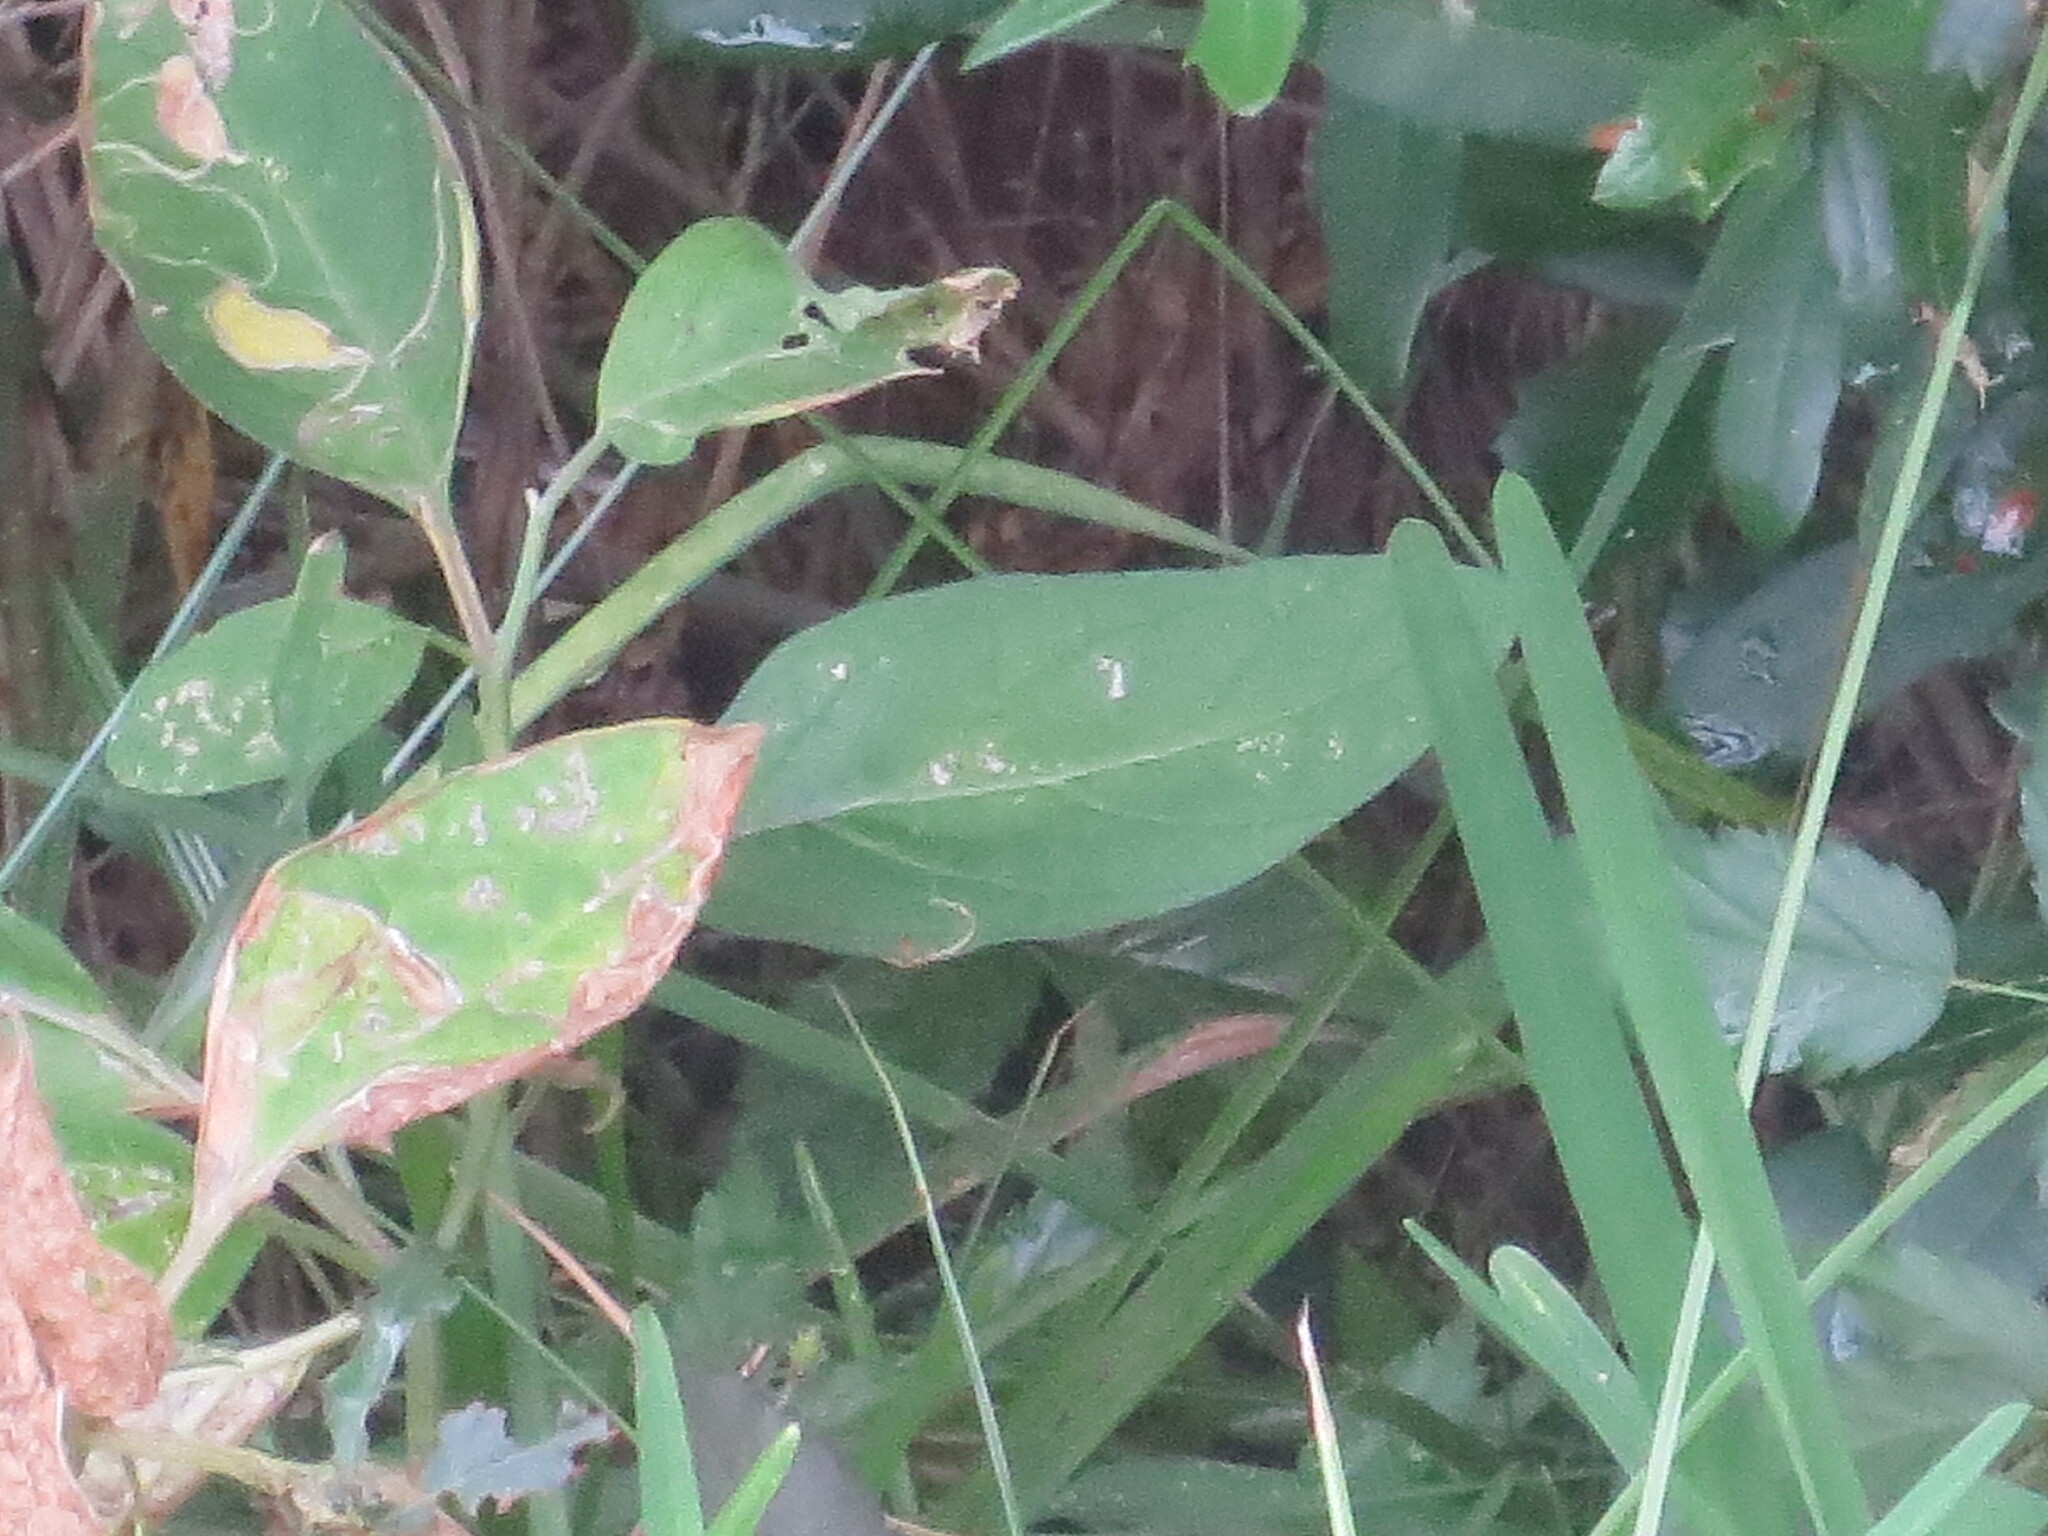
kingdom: Plantae
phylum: Tracheophyta
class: Magnoliopsida
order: Solanales
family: Solanaceae
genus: Physalis
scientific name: Physalis walteri
